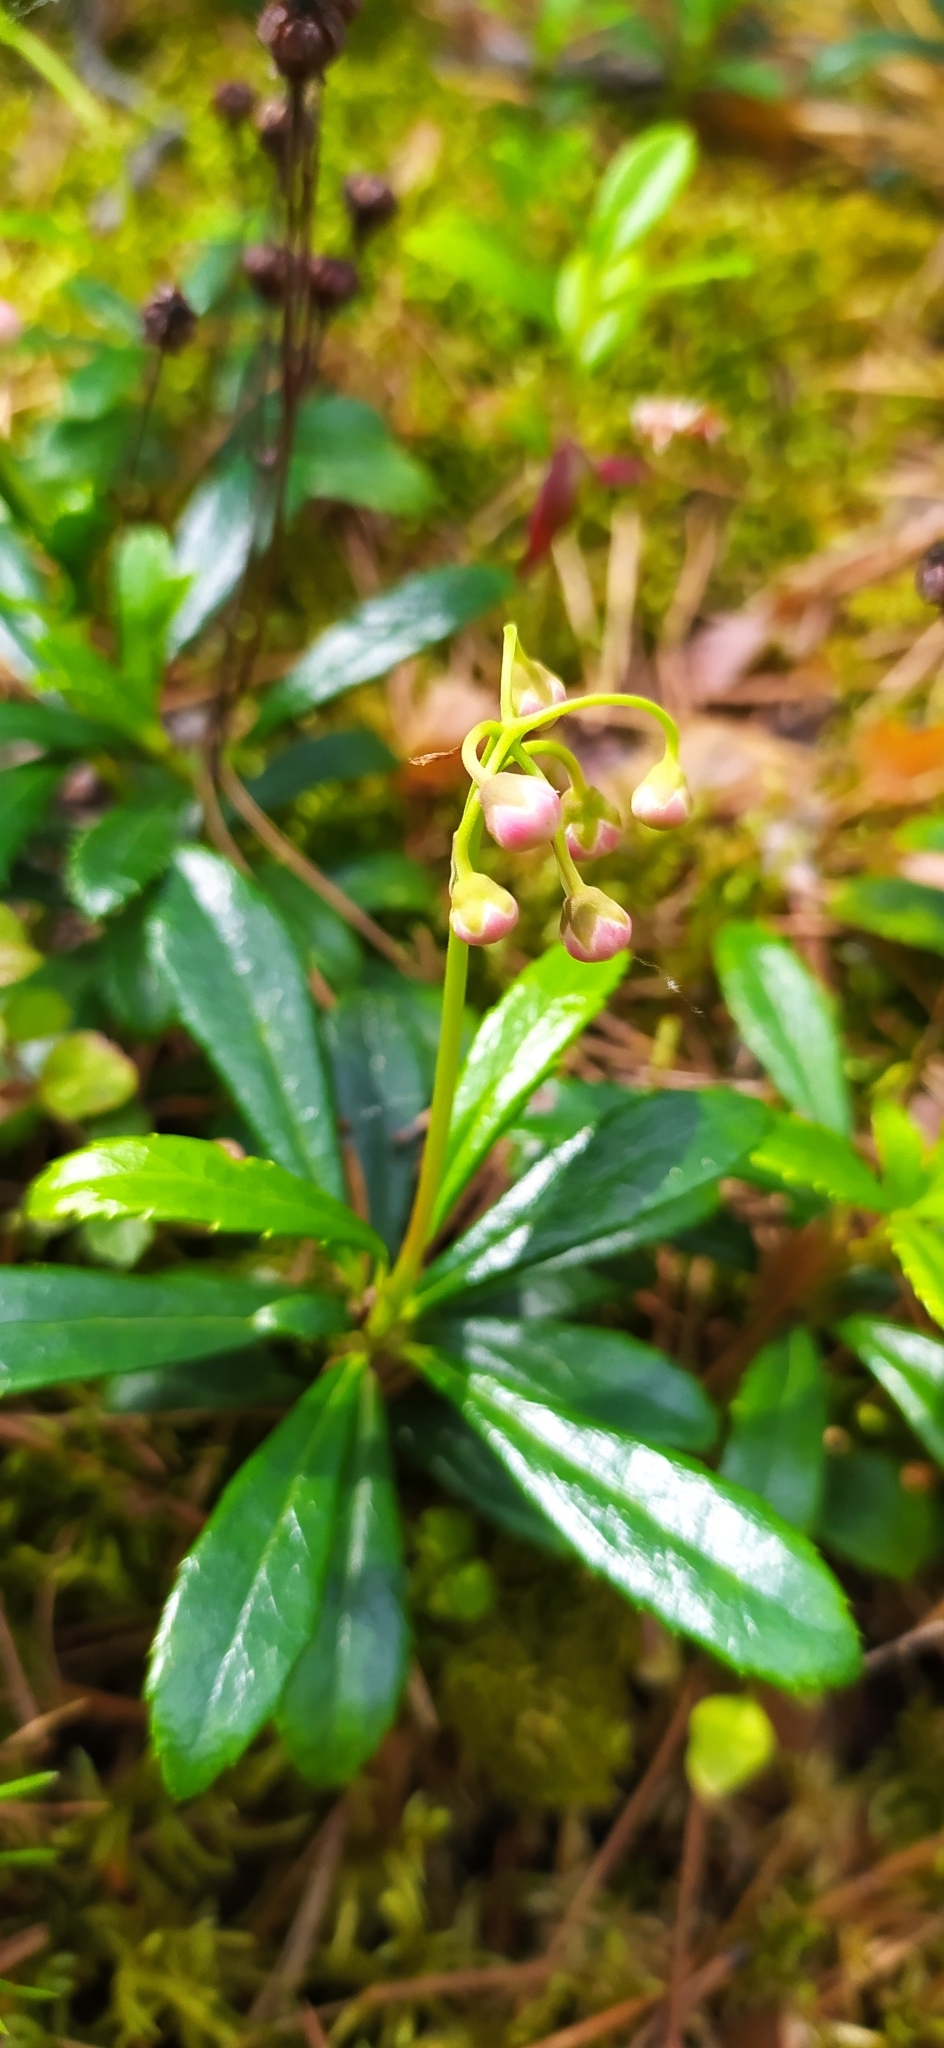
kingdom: Plantae
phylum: Tracheophyta
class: Magnoliopsida
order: Ericales
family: Ericaceae
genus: Chimaphila
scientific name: Chimaphila umbellata
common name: Pipsissewa
